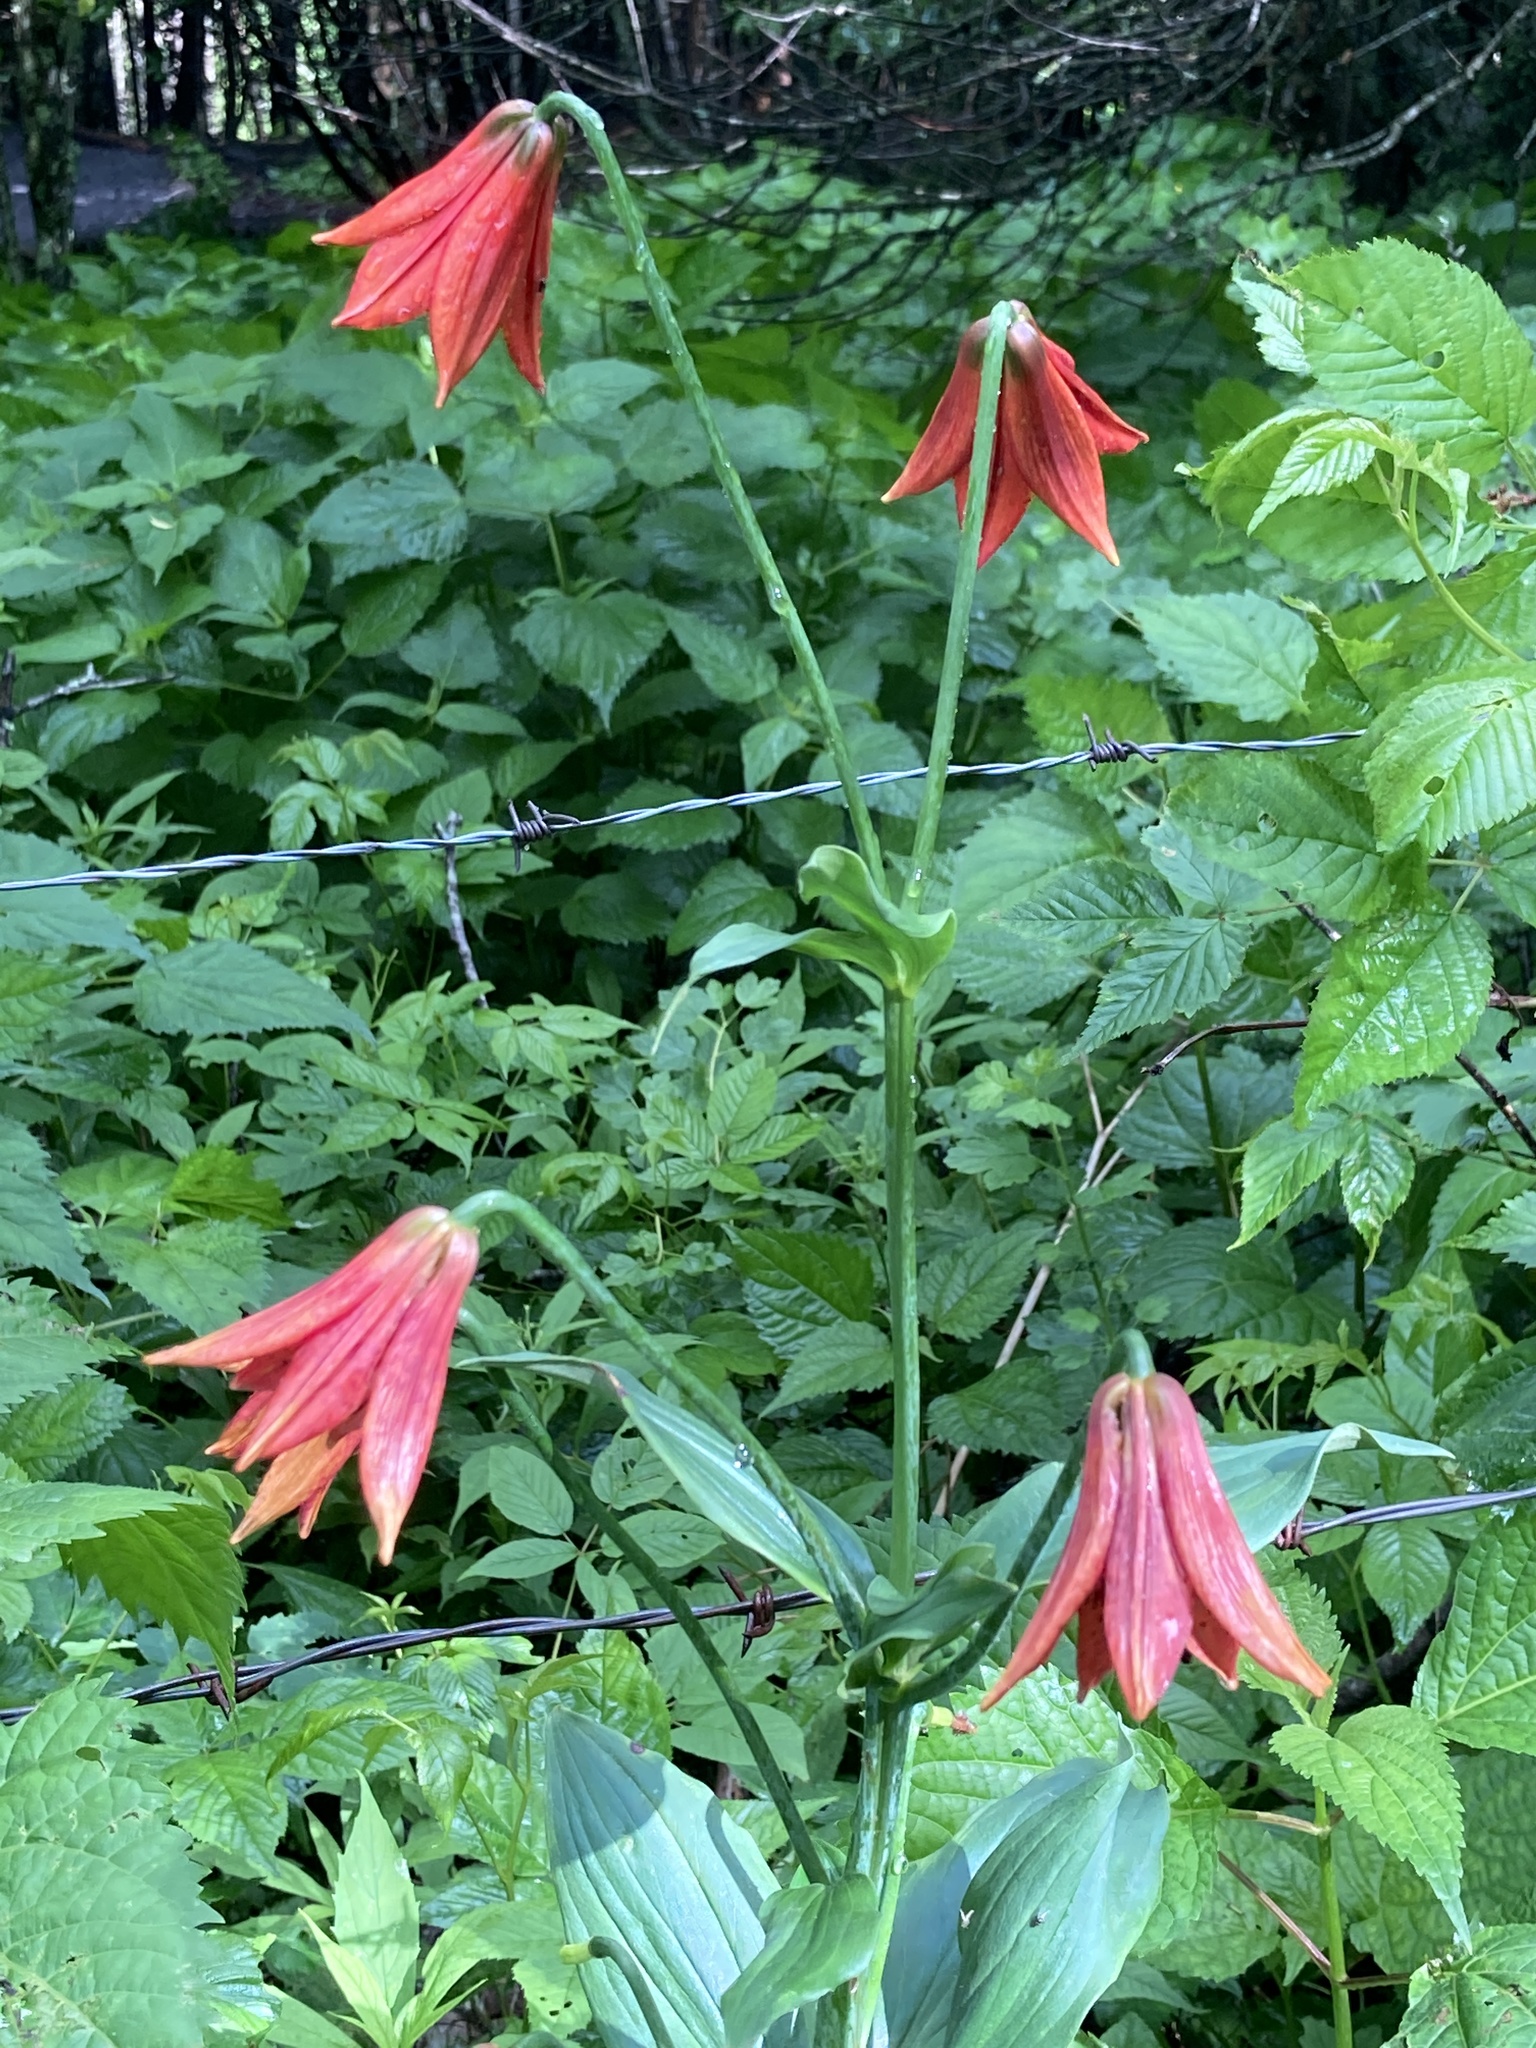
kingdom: Plantae
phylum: Tracheophyta
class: Liliopsida
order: Liliales
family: Liliaceae
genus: Lilium
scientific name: Lilium grayi
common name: Gray's lily
